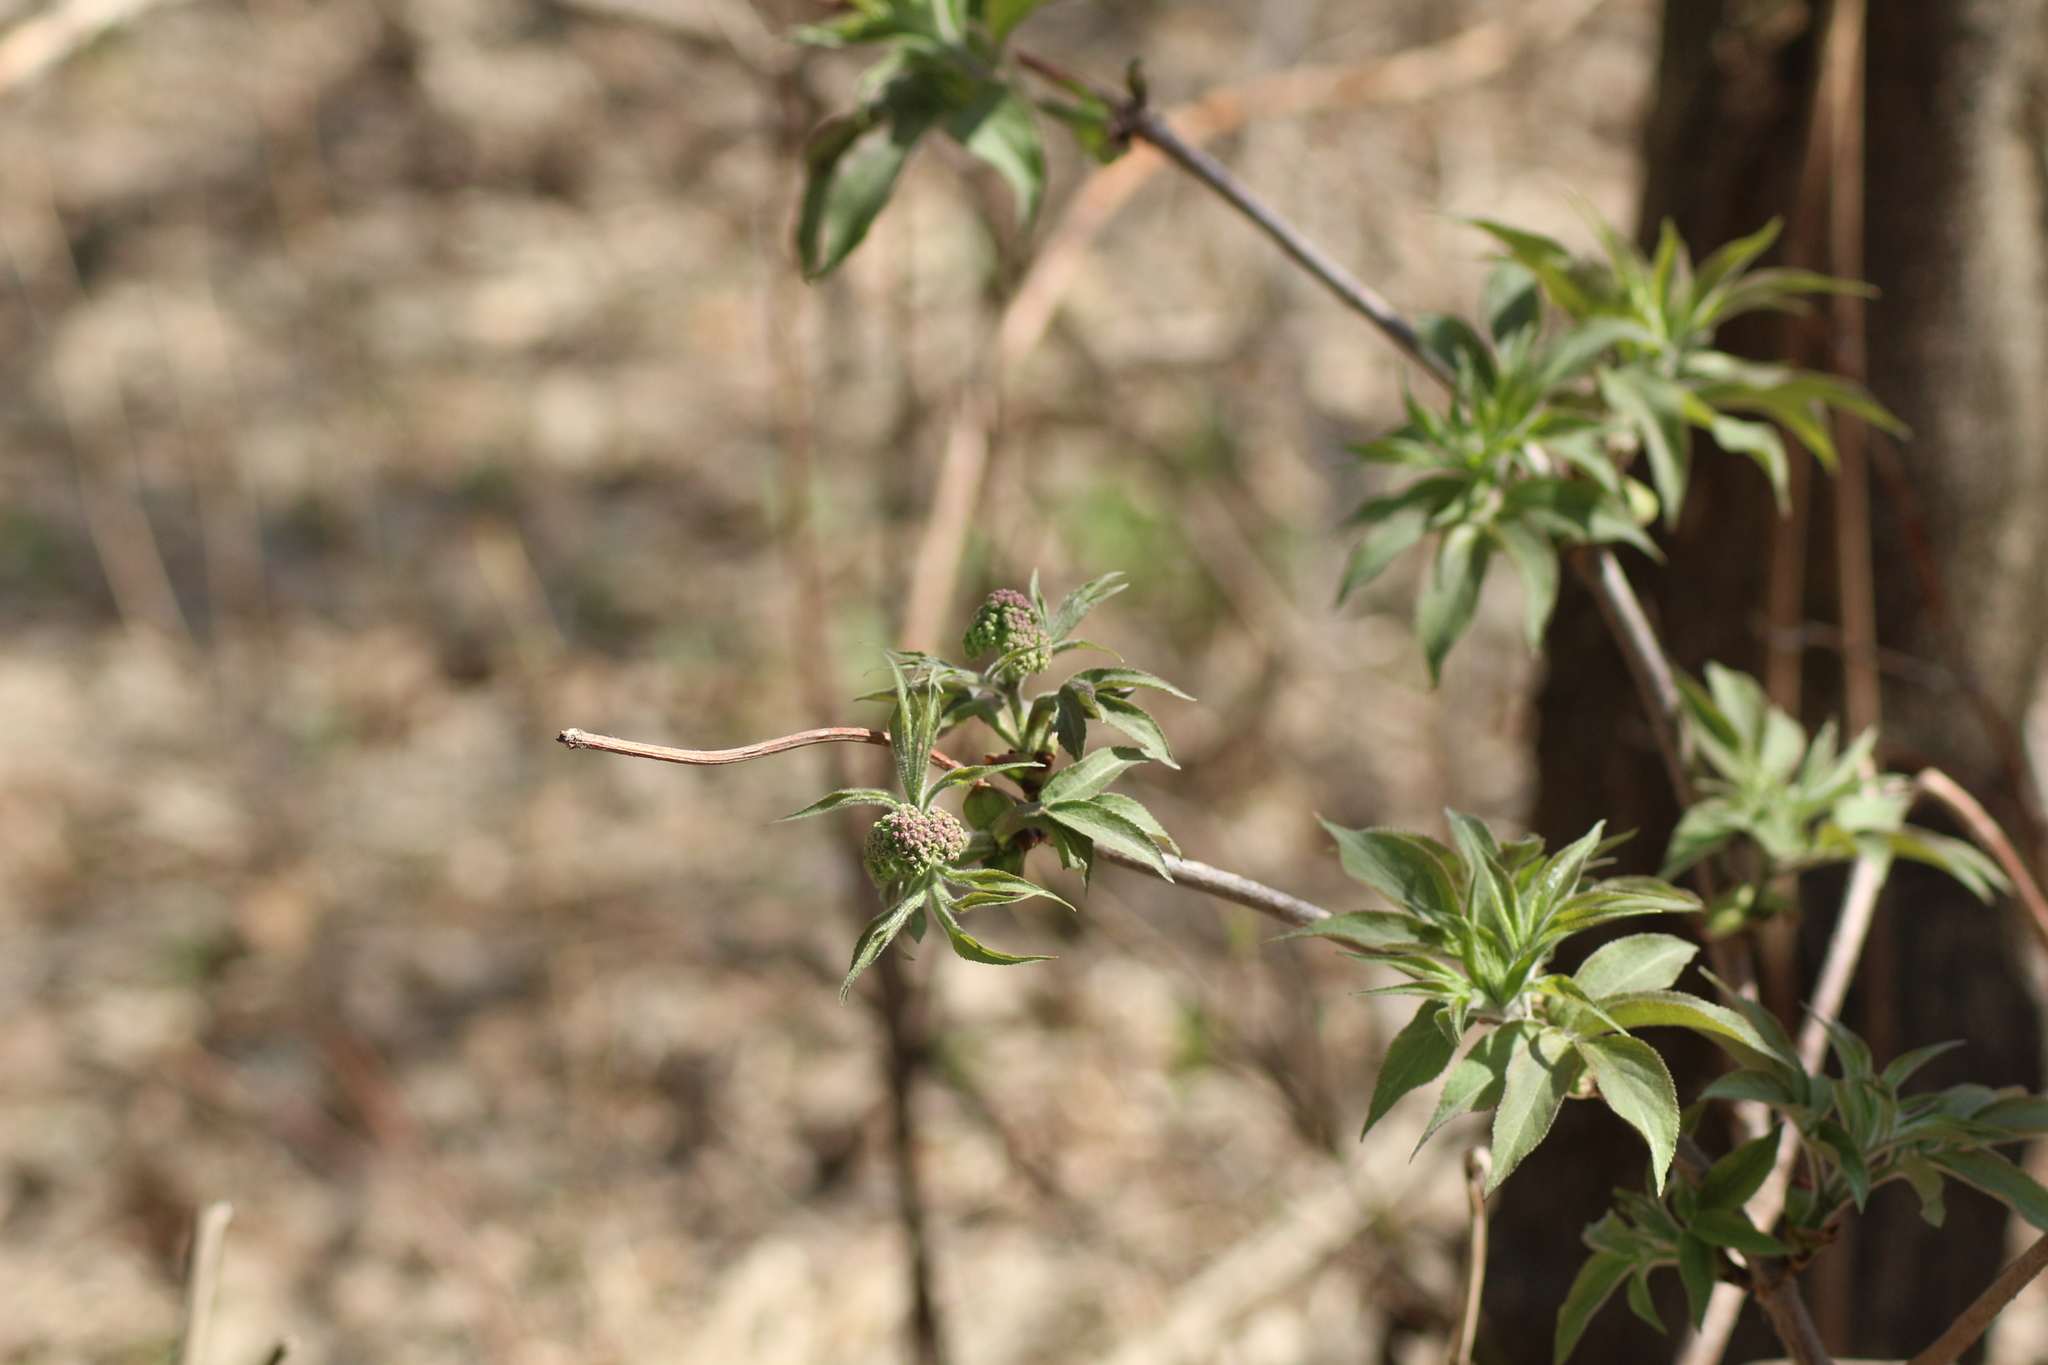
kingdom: Plantae
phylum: Tracheophyta
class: Magnoliopsida
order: Dipsacales
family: Viburnaceae
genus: Sambucus
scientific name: Sambucus sibirica
